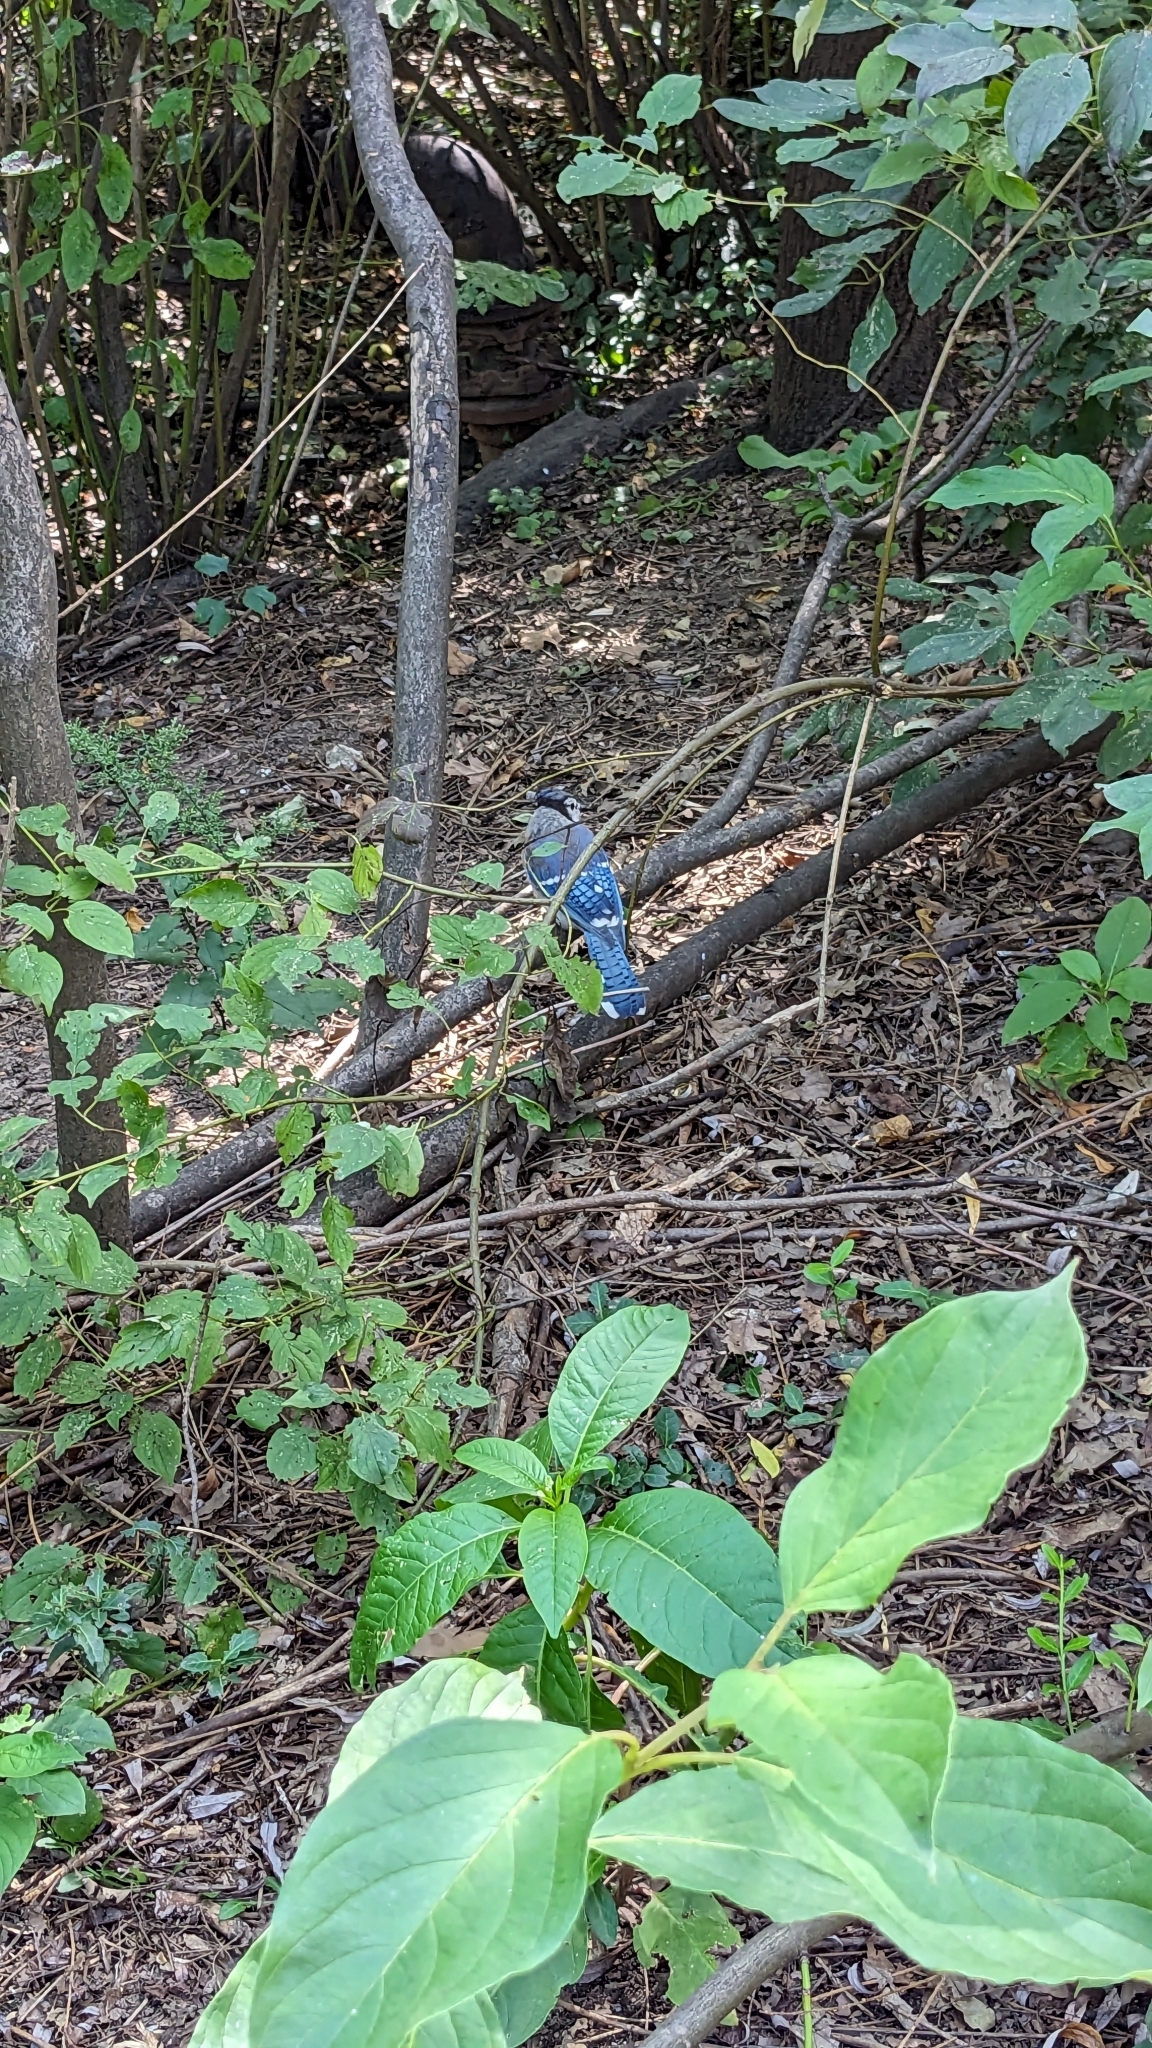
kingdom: Animalia
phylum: Chordata
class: Aves
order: Passeriformes
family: Corvidae
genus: Cyanocitta
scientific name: Cyanocitta cristata
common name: Blue jay
